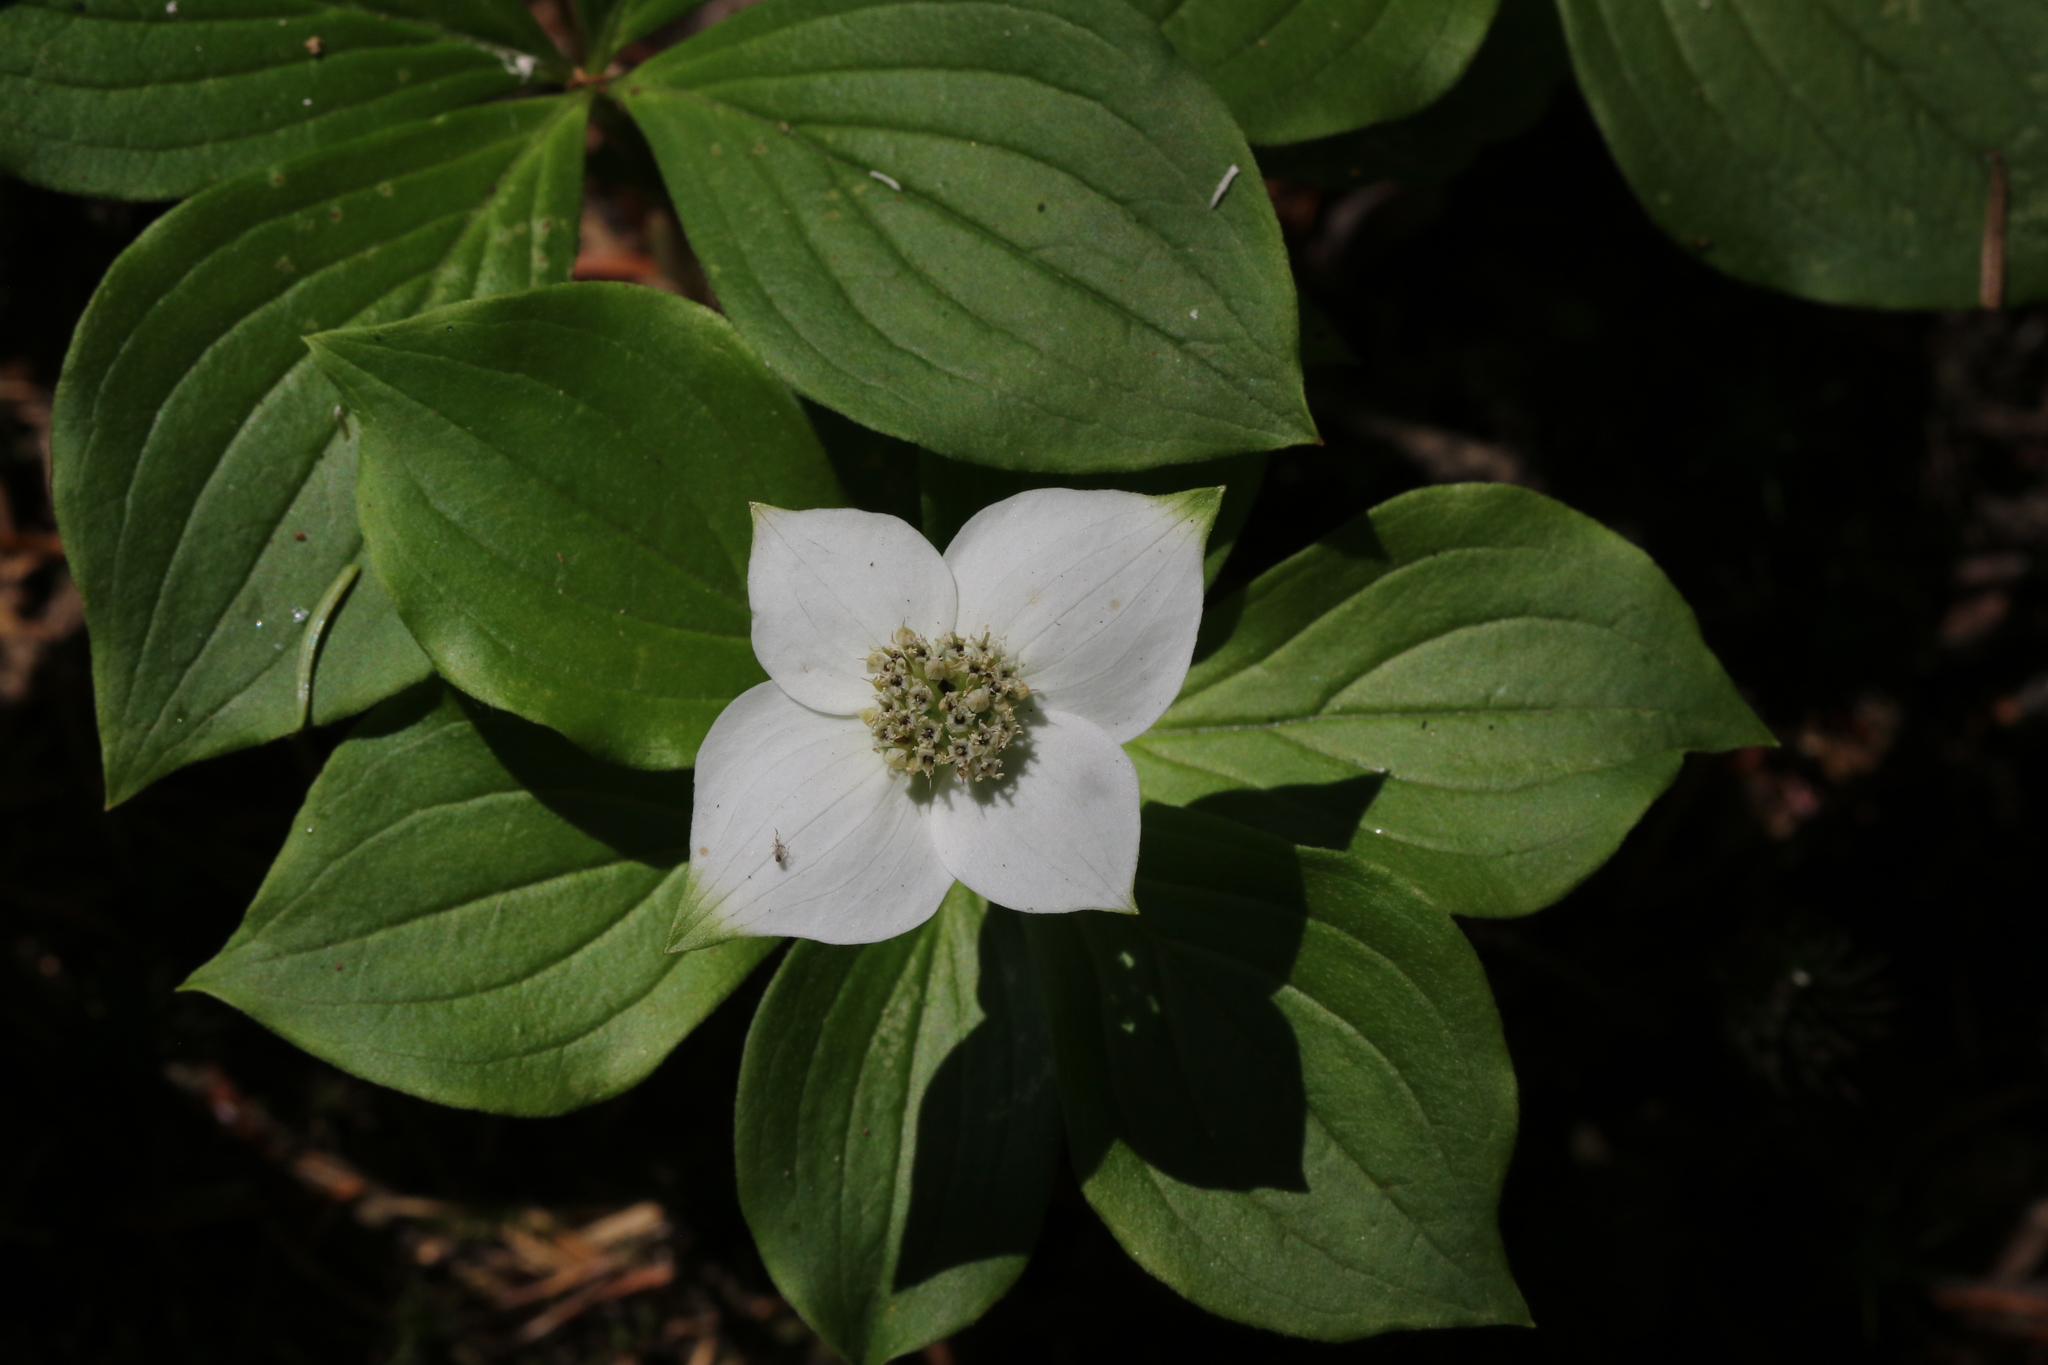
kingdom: Plantae
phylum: Tracheophyta
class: Magnoliopsida
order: Cornales
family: Cornaceae
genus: Cornus
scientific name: Cornus canadensis
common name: Creeping dogwood
